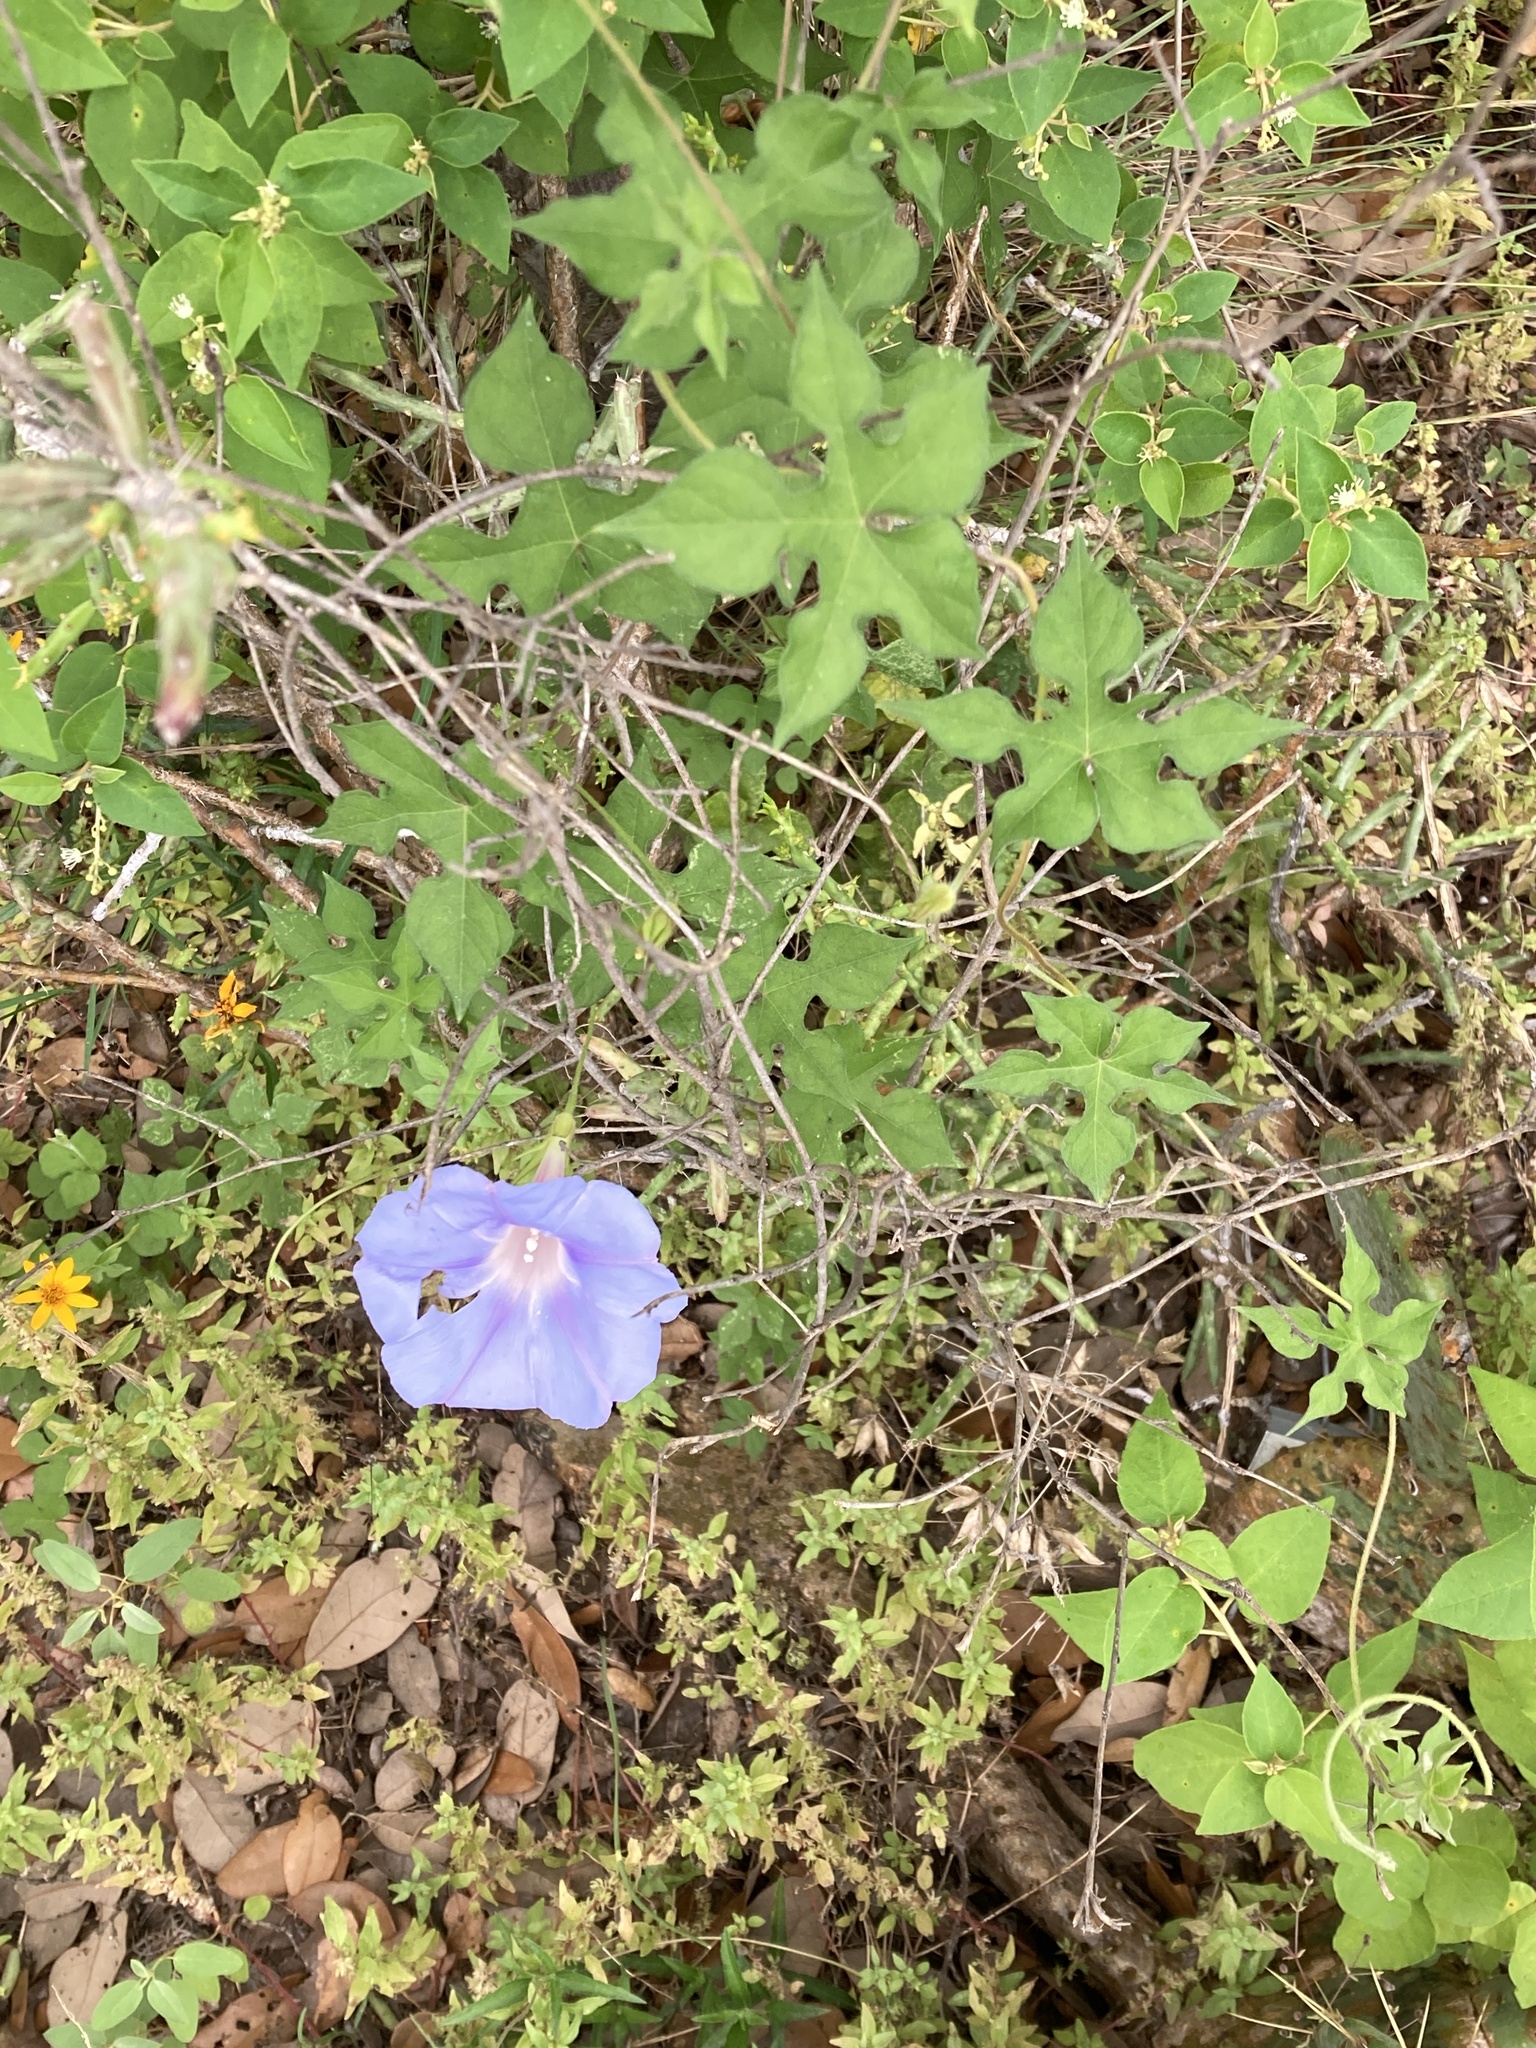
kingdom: Plantae
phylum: Tracheophyta
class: Magnoliopsida
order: Solanales
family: Convolvulaceae
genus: Ipomoea
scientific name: Ipomoea lindheimeri
